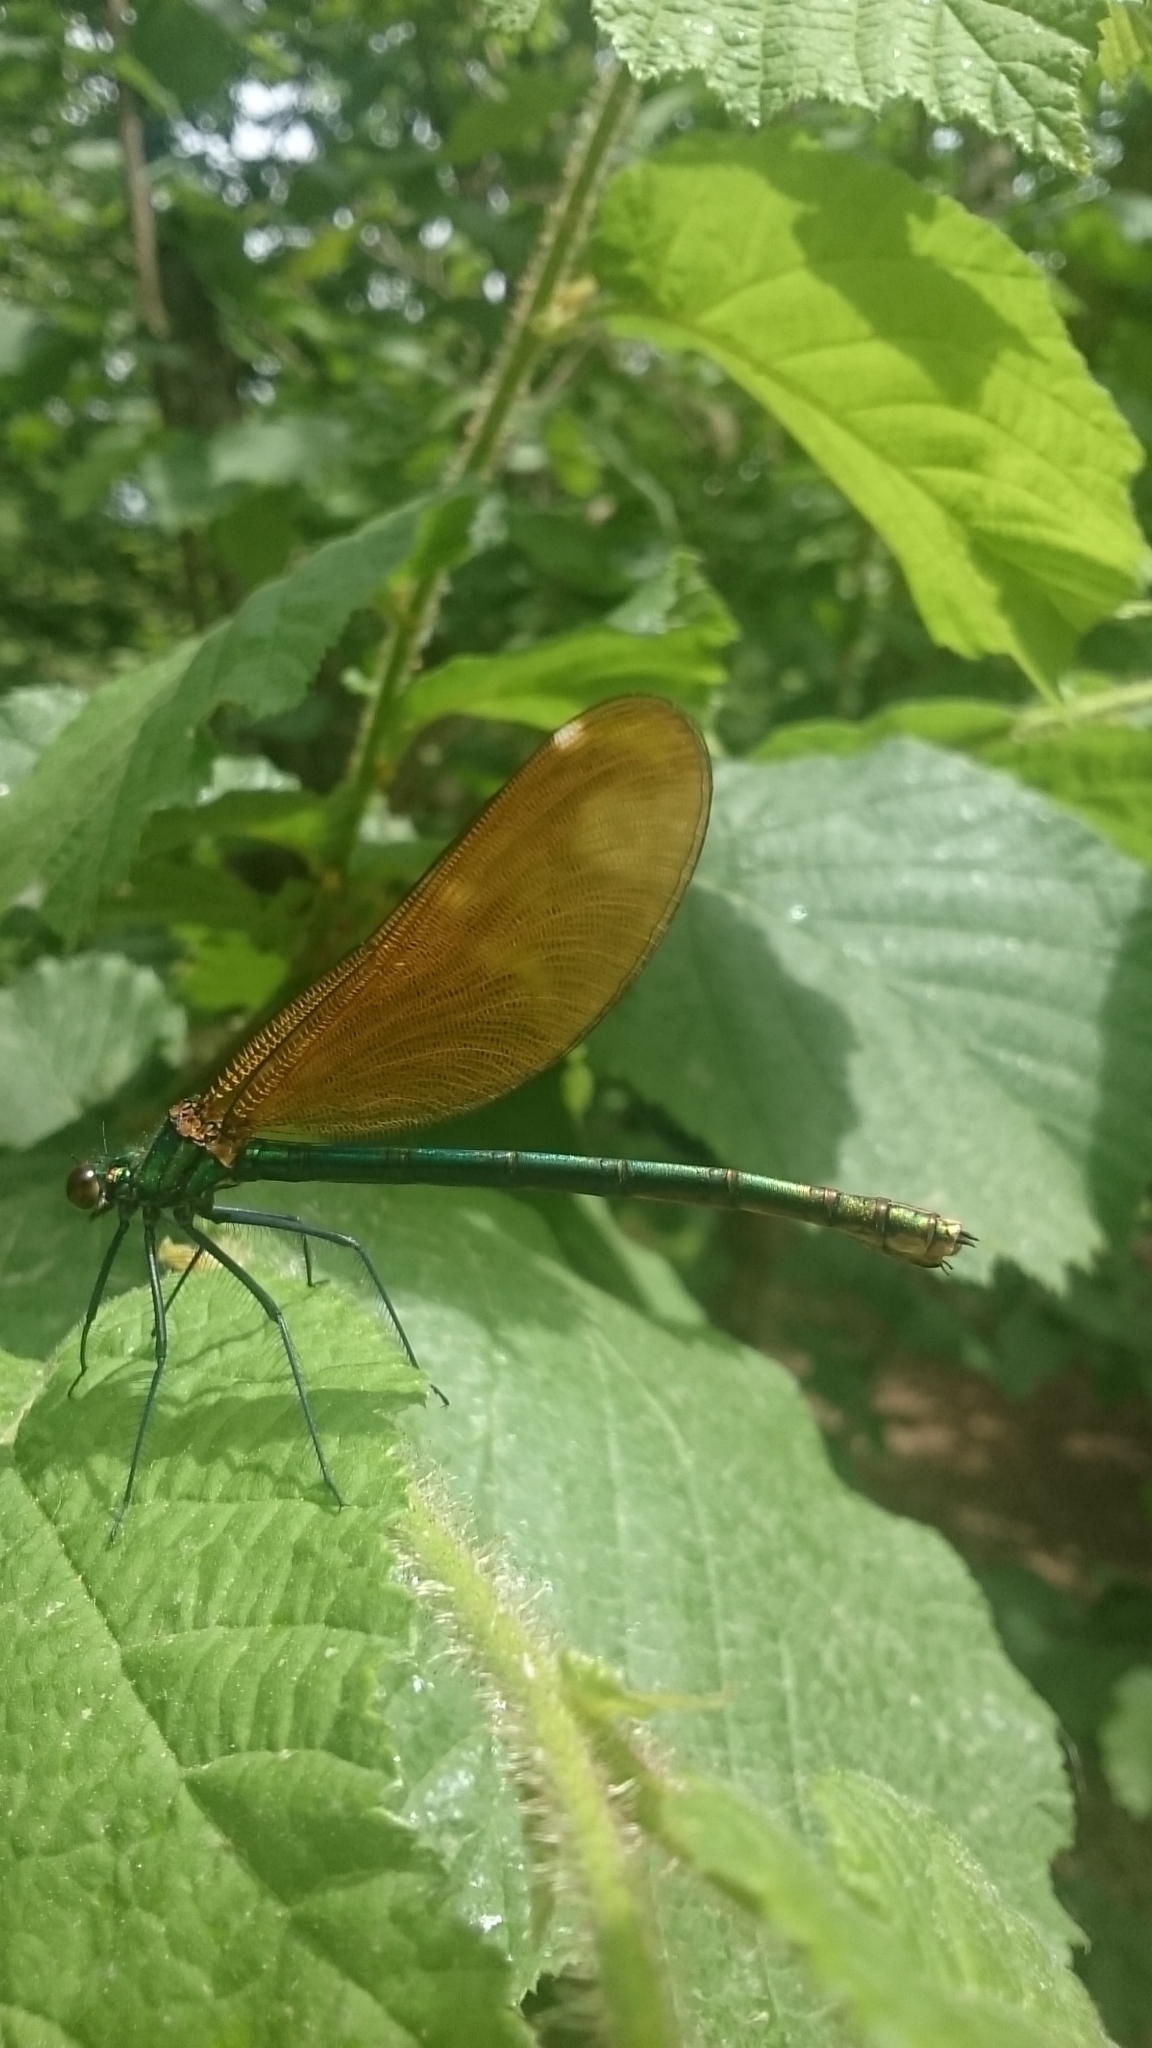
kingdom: Animalia
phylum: Arthropoda
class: Insecta
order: Odonata
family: Calopterygidae
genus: Calopteryx
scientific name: Calopteryx virgo
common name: Beautiful demoiselle
